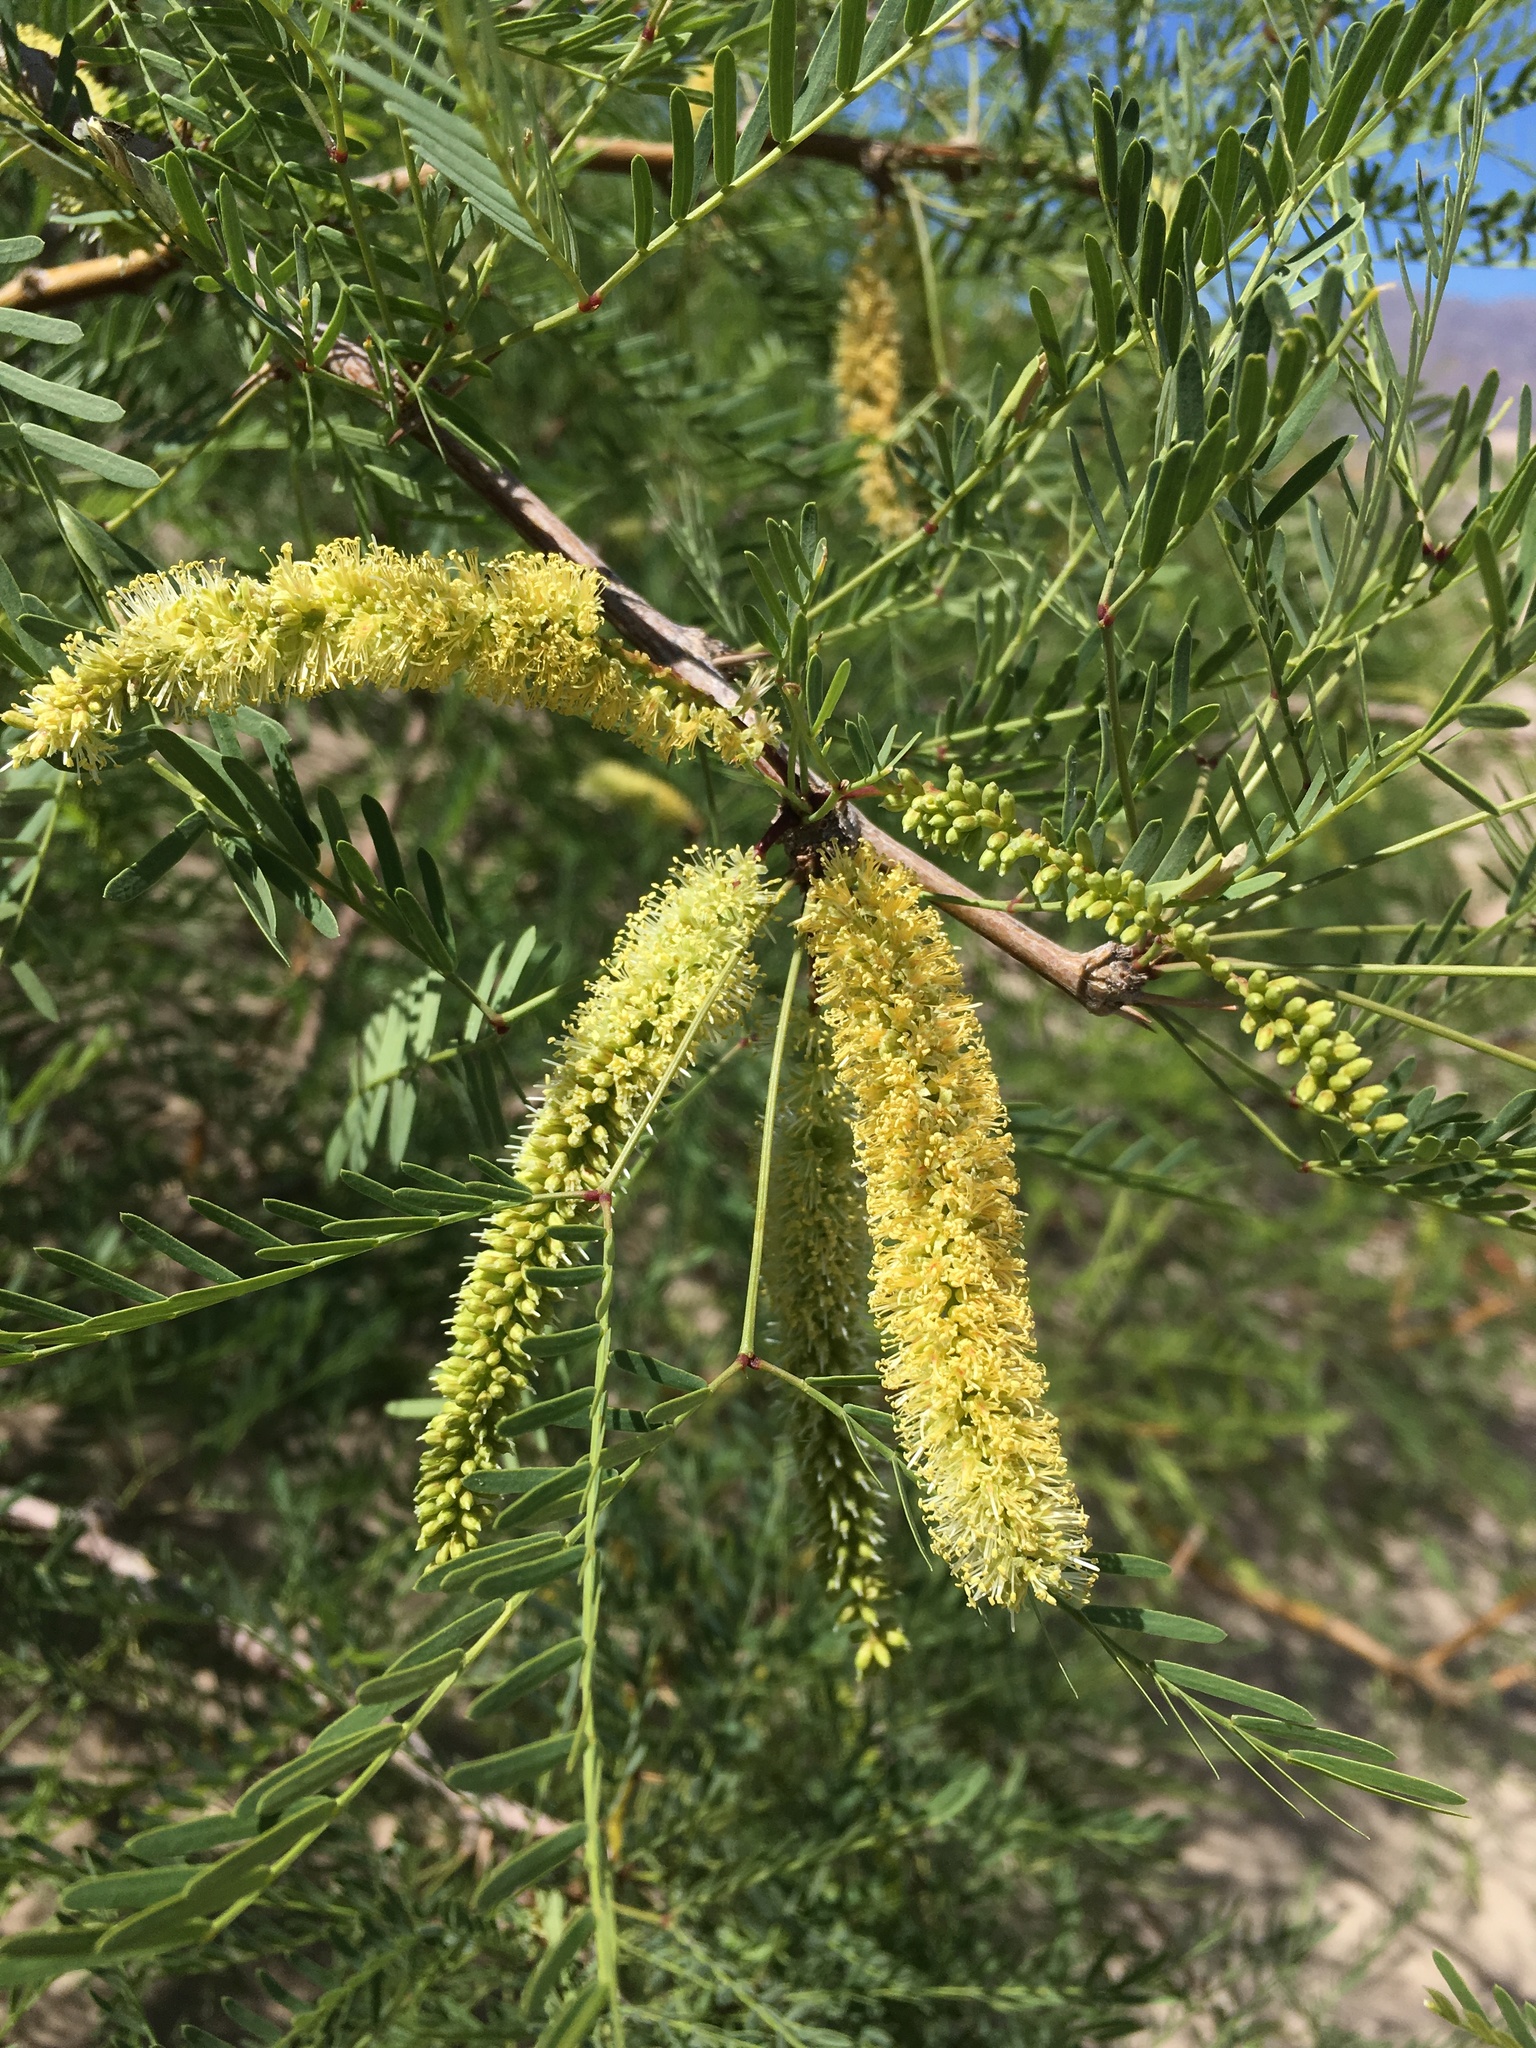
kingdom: Plantae
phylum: Tracheophyta
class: Magnoliopsida
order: Fabales
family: Fabaceae
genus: Prosopis
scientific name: Prosopis glandulosa
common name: Honey mesquite
